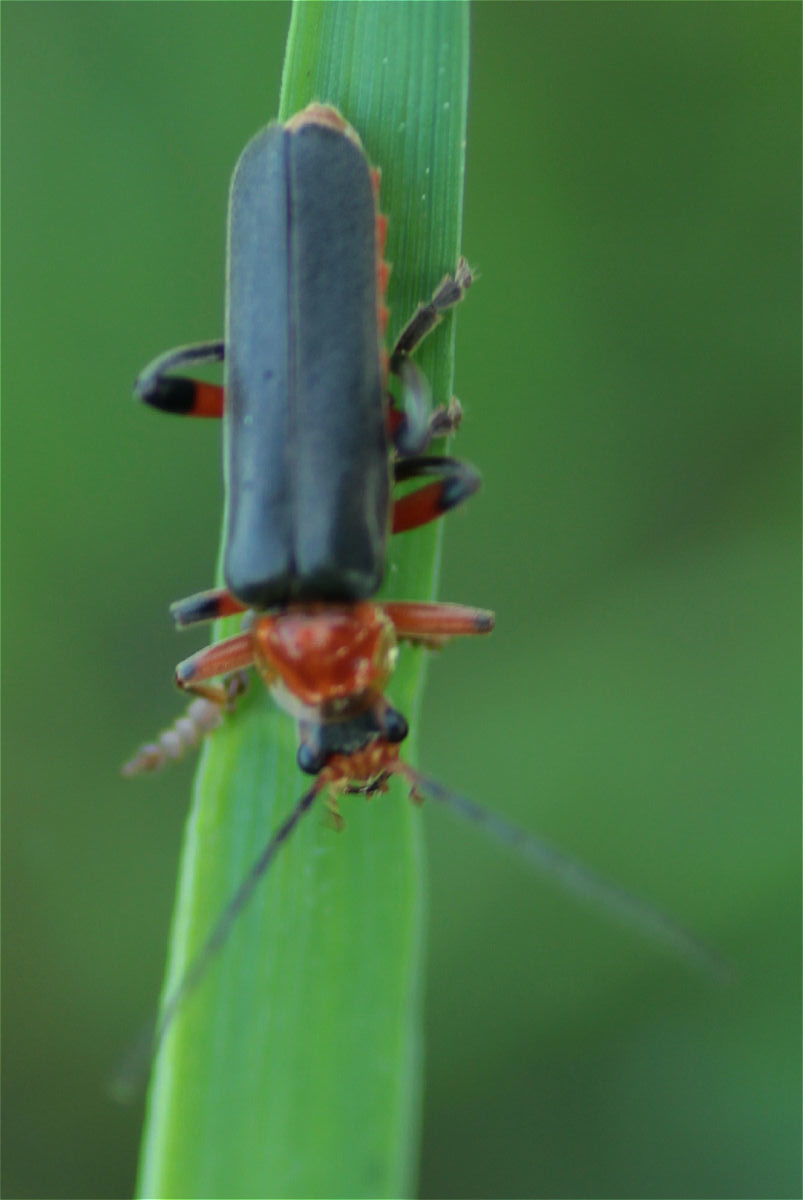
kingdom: Animalia
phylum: Arthropoda
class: Insecta
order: Coleoptera
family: Cantharidae
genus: Cantharis
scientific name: Cantharis livida
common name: Livid soldier beetle
